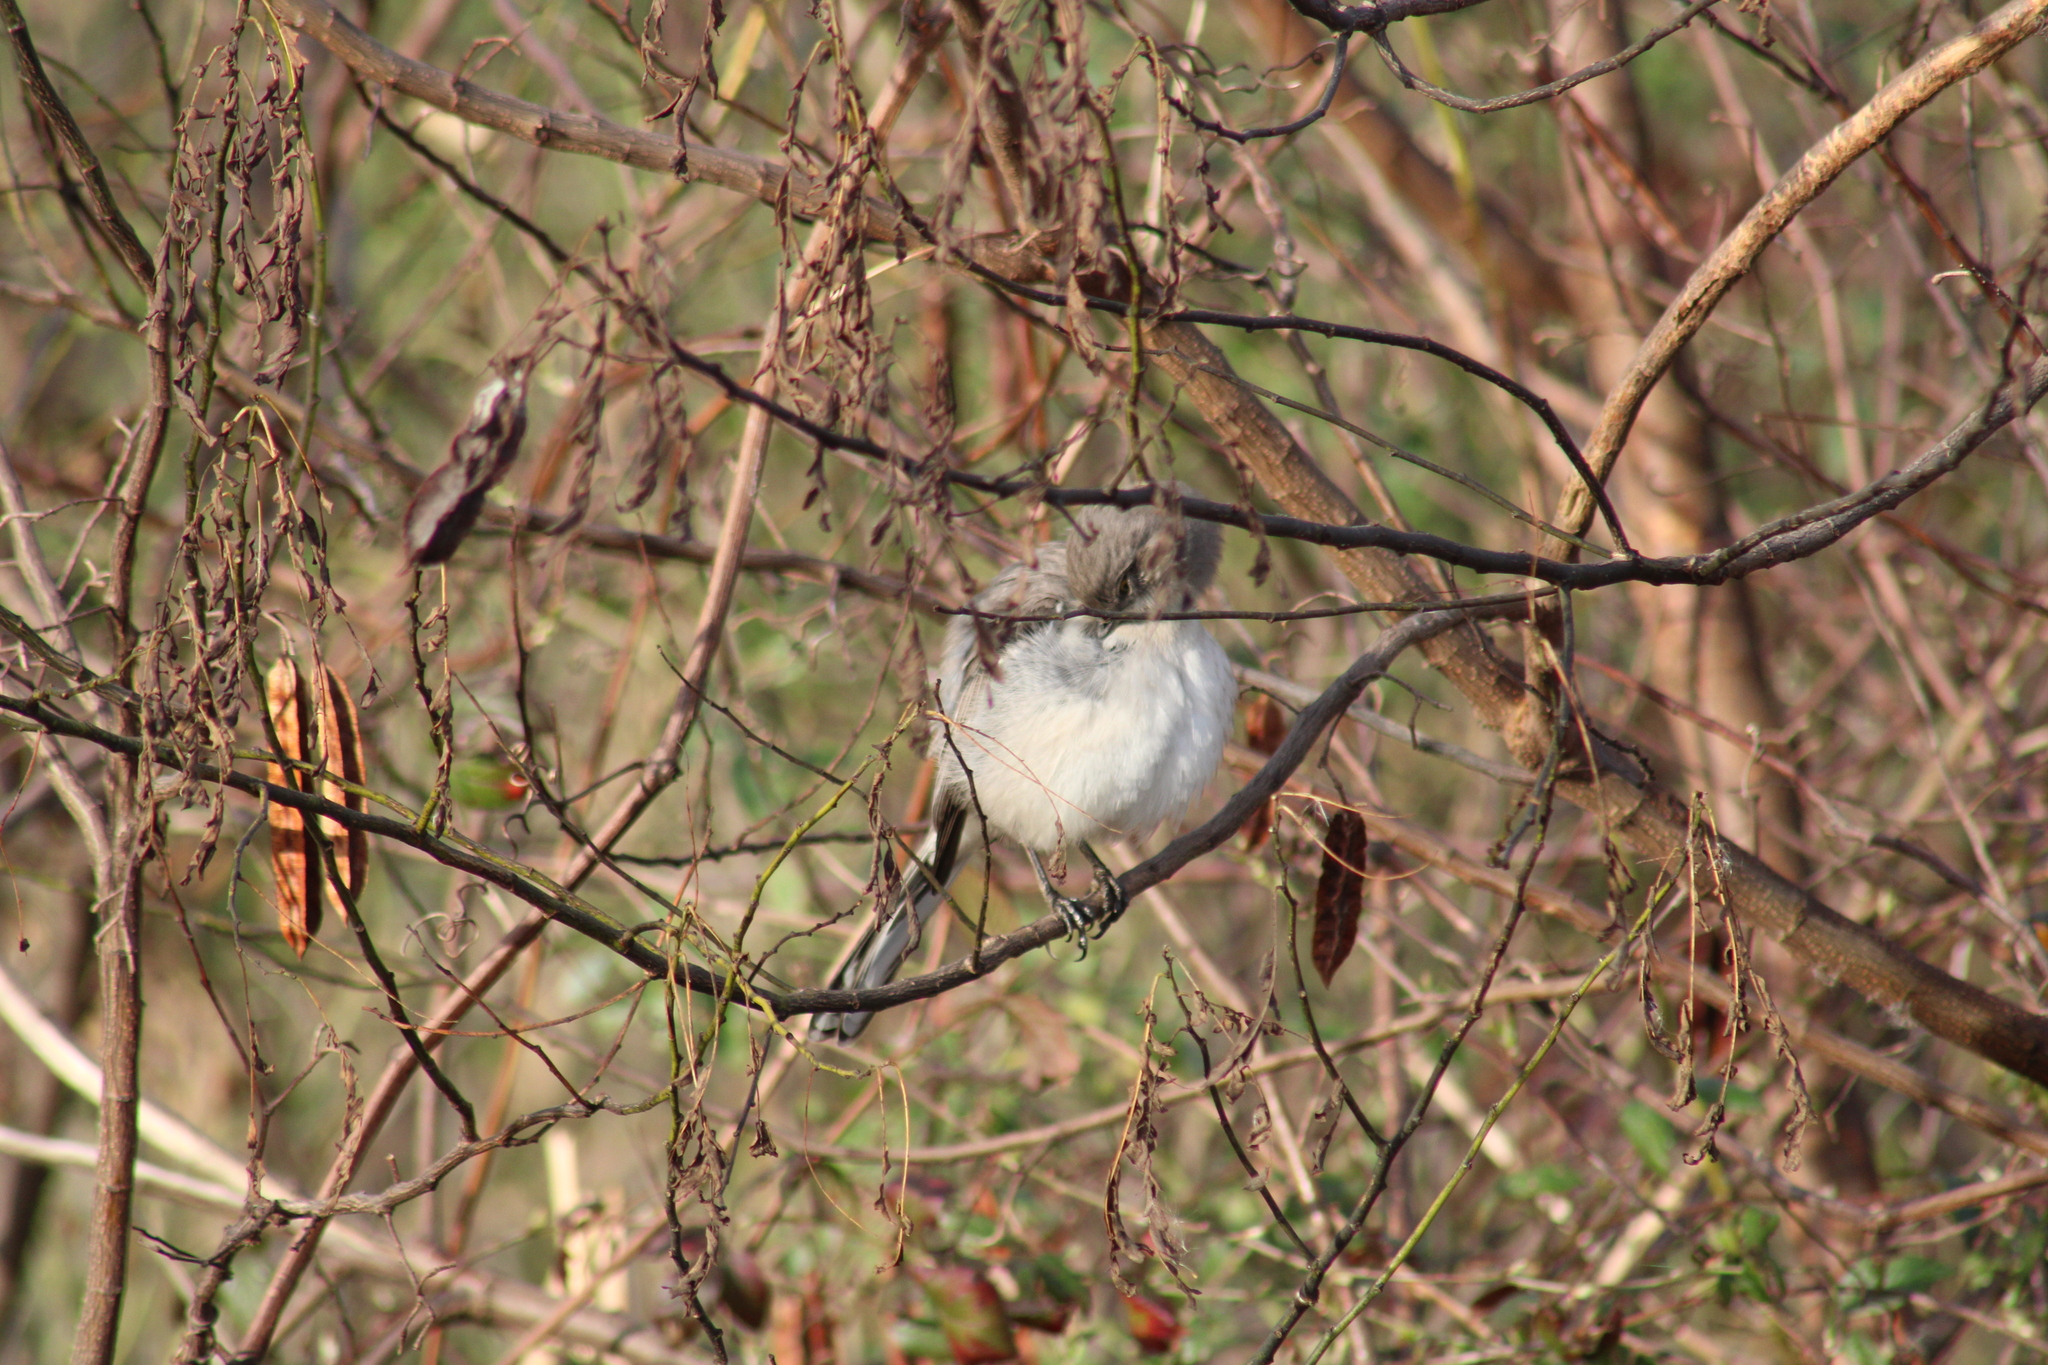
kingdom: Animalia
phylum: Chordata
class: Aves
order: Passeriformes
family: Mimidae
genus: Mimus
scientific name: Mimus polyglottos
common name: Northern mockingbird
